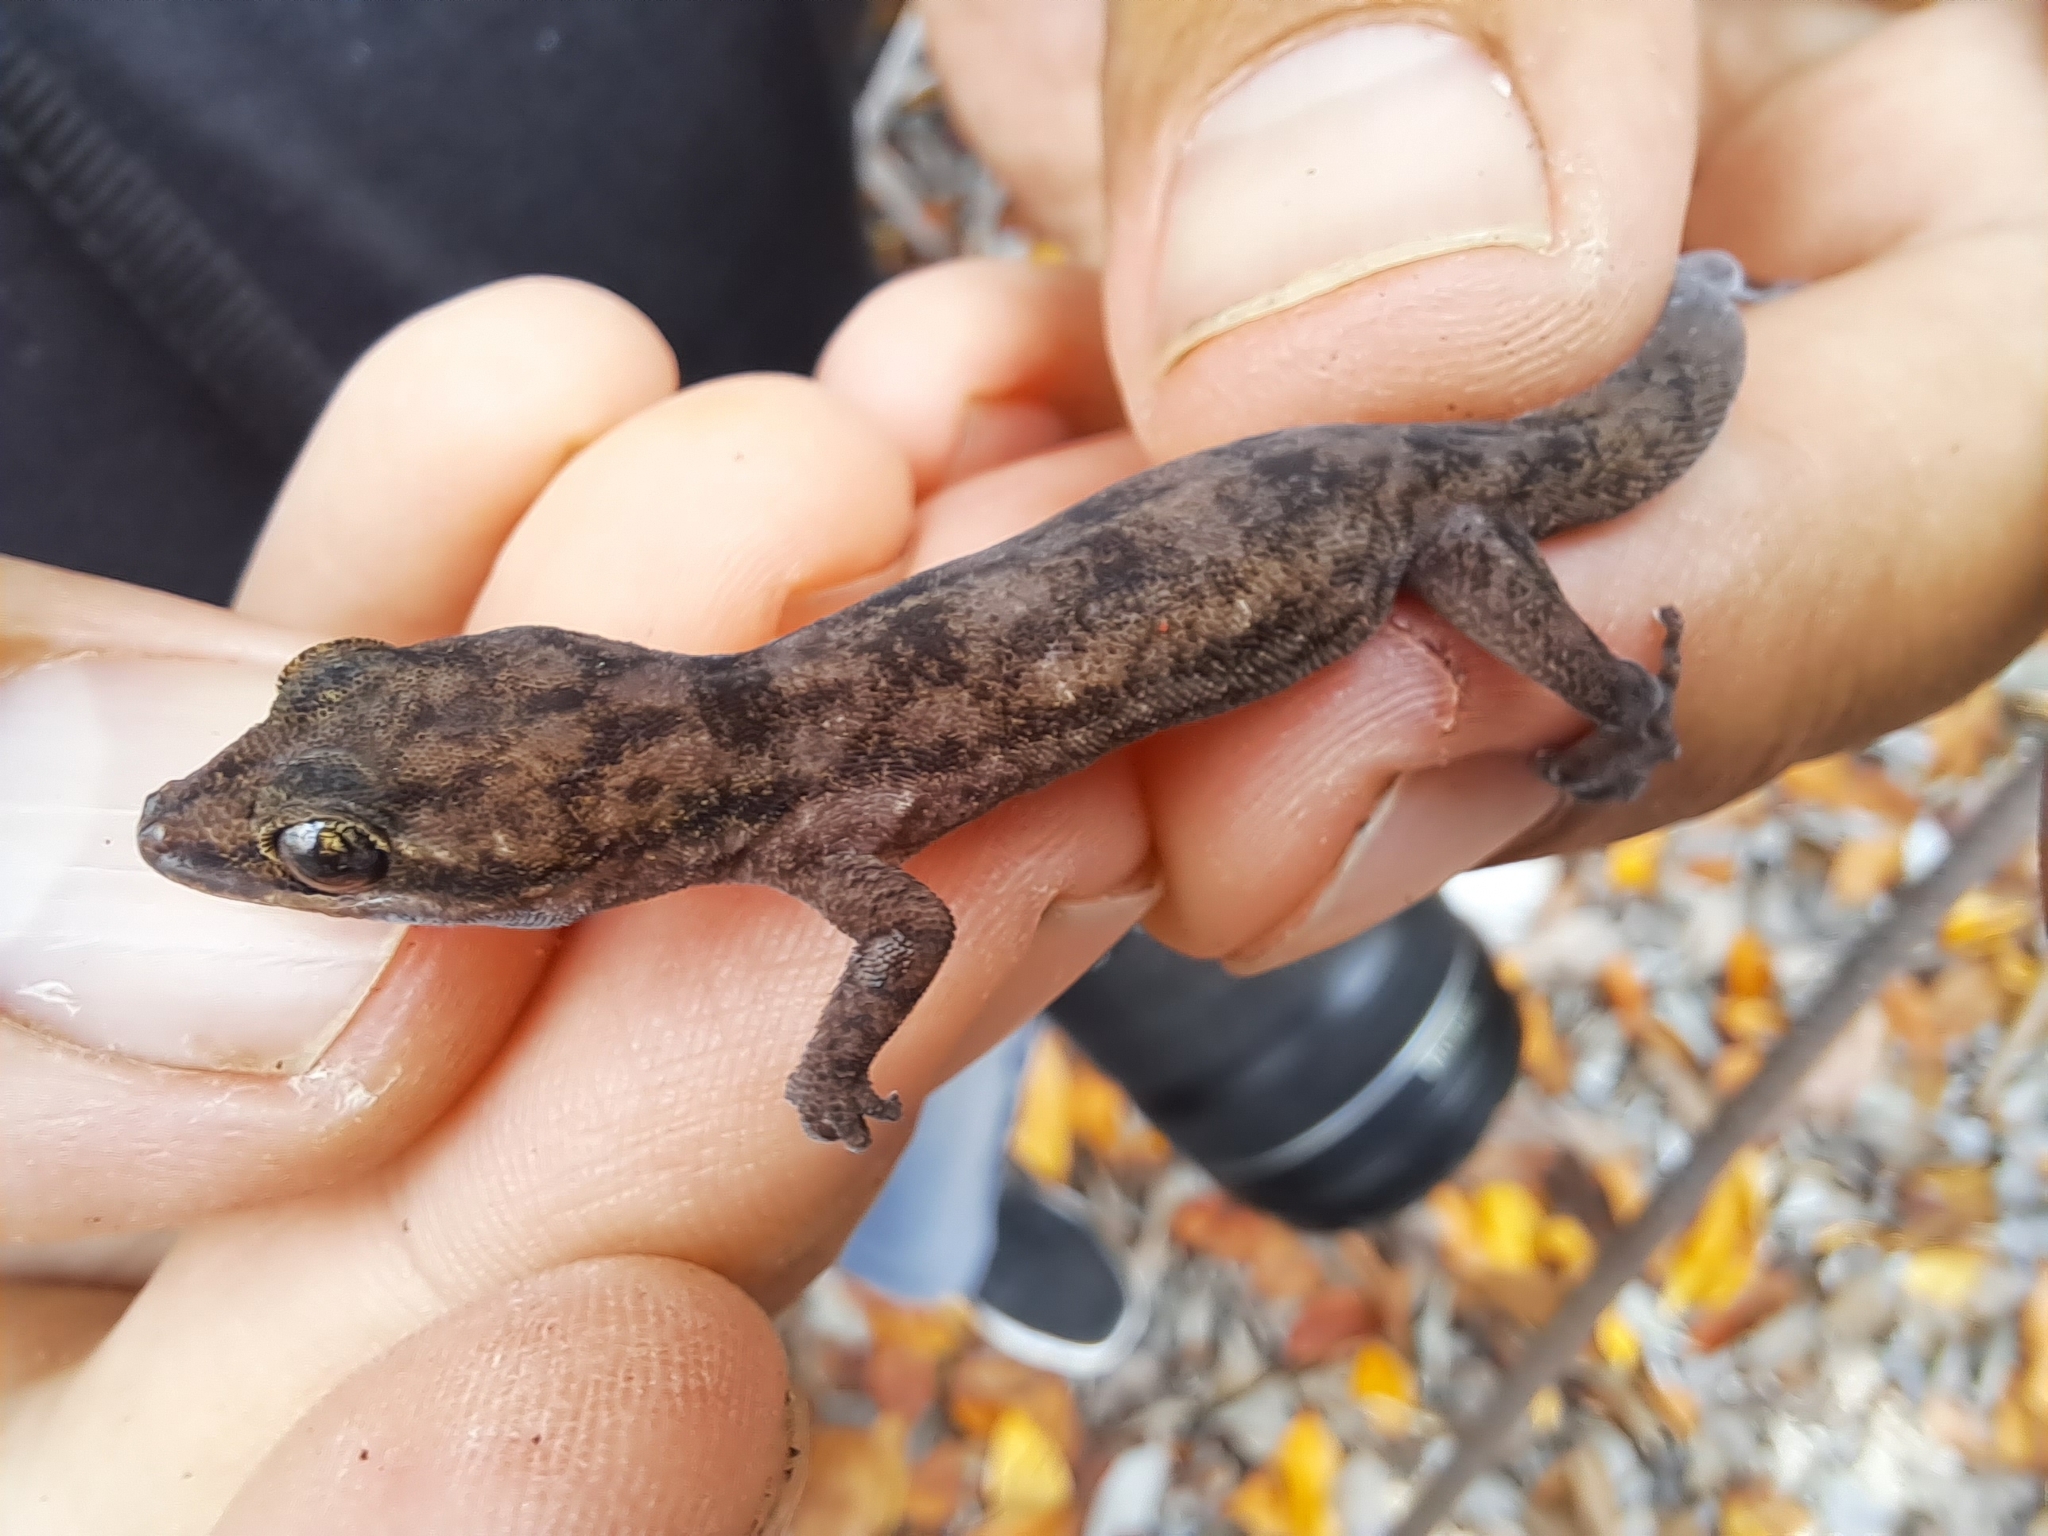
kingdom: Animalia
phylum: Chordata
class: Squamata
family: Phyllodactylidae
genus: Phyllodactylus
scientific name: Phyllodactylus leei
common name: Chatham leaf-toed gecko
